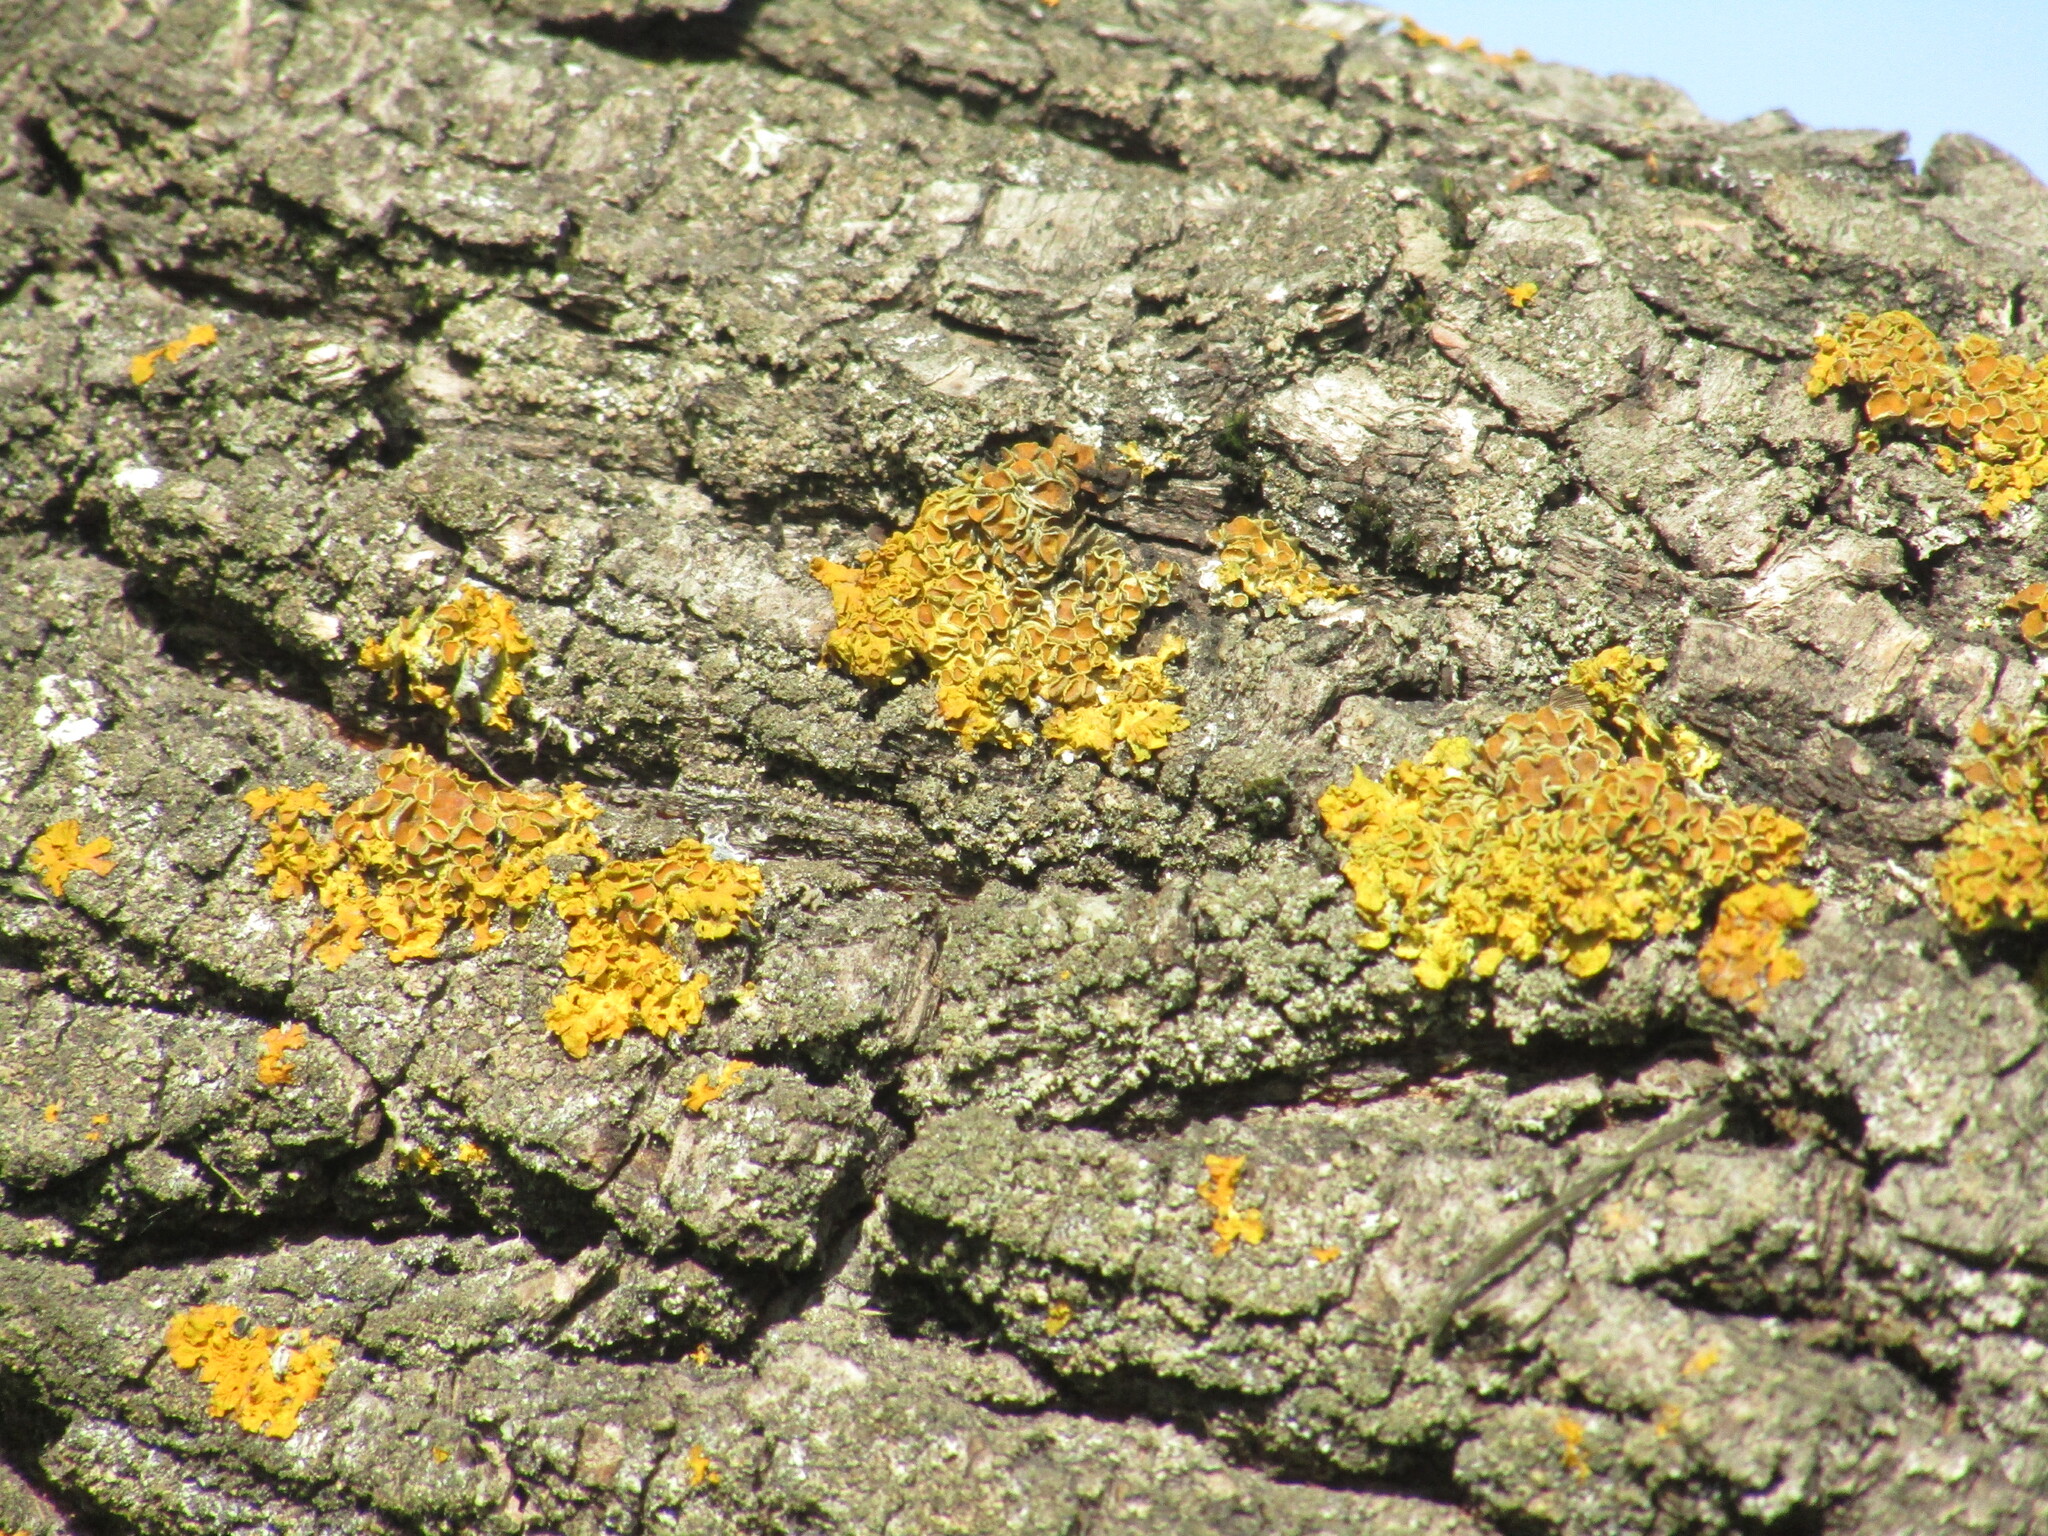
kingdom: Fungi
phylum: Ascomycota
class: Lecanoromycetes
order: Teloschistales
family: Teloschistaceae
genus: Xanthoria
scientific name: Xanthoria parietina
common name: Common orange lichen
